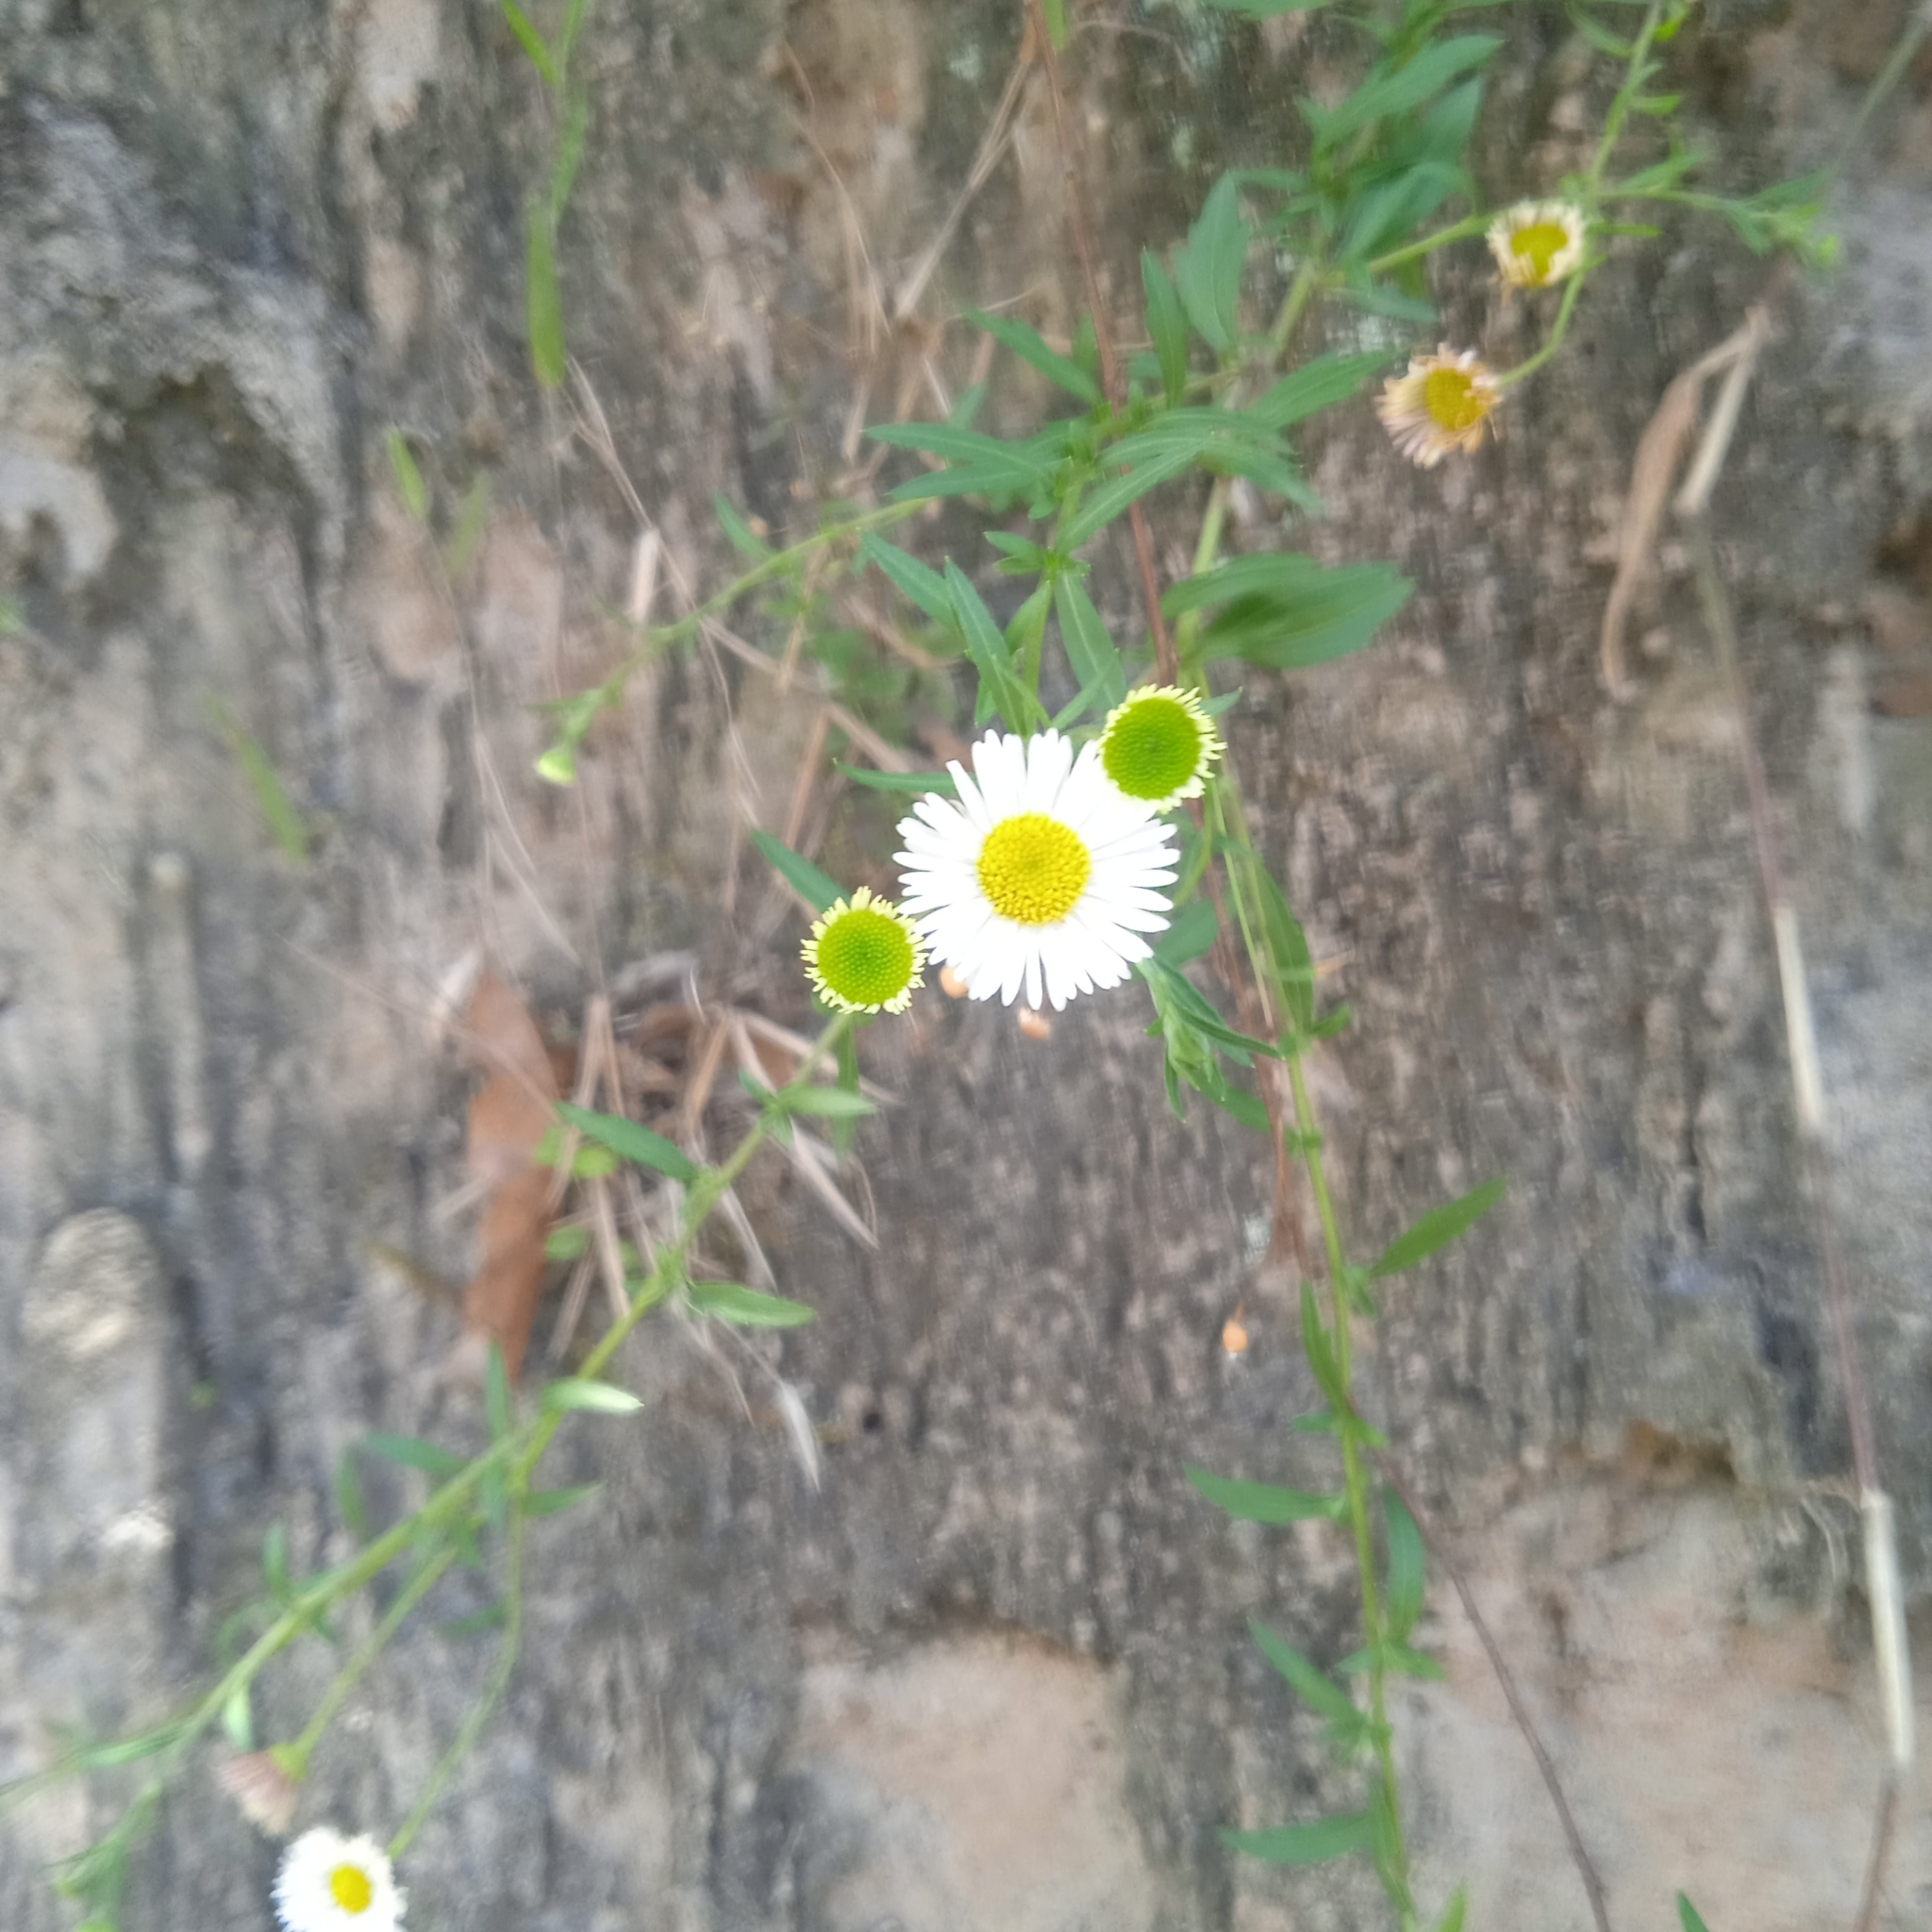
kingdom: Plantae
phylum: Tracheophyta
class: Magnoliopsida
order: Asterales
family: Asteraceae
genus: Erigeron
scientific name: Erigeron karvinskianus
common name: Mexican fleabane
